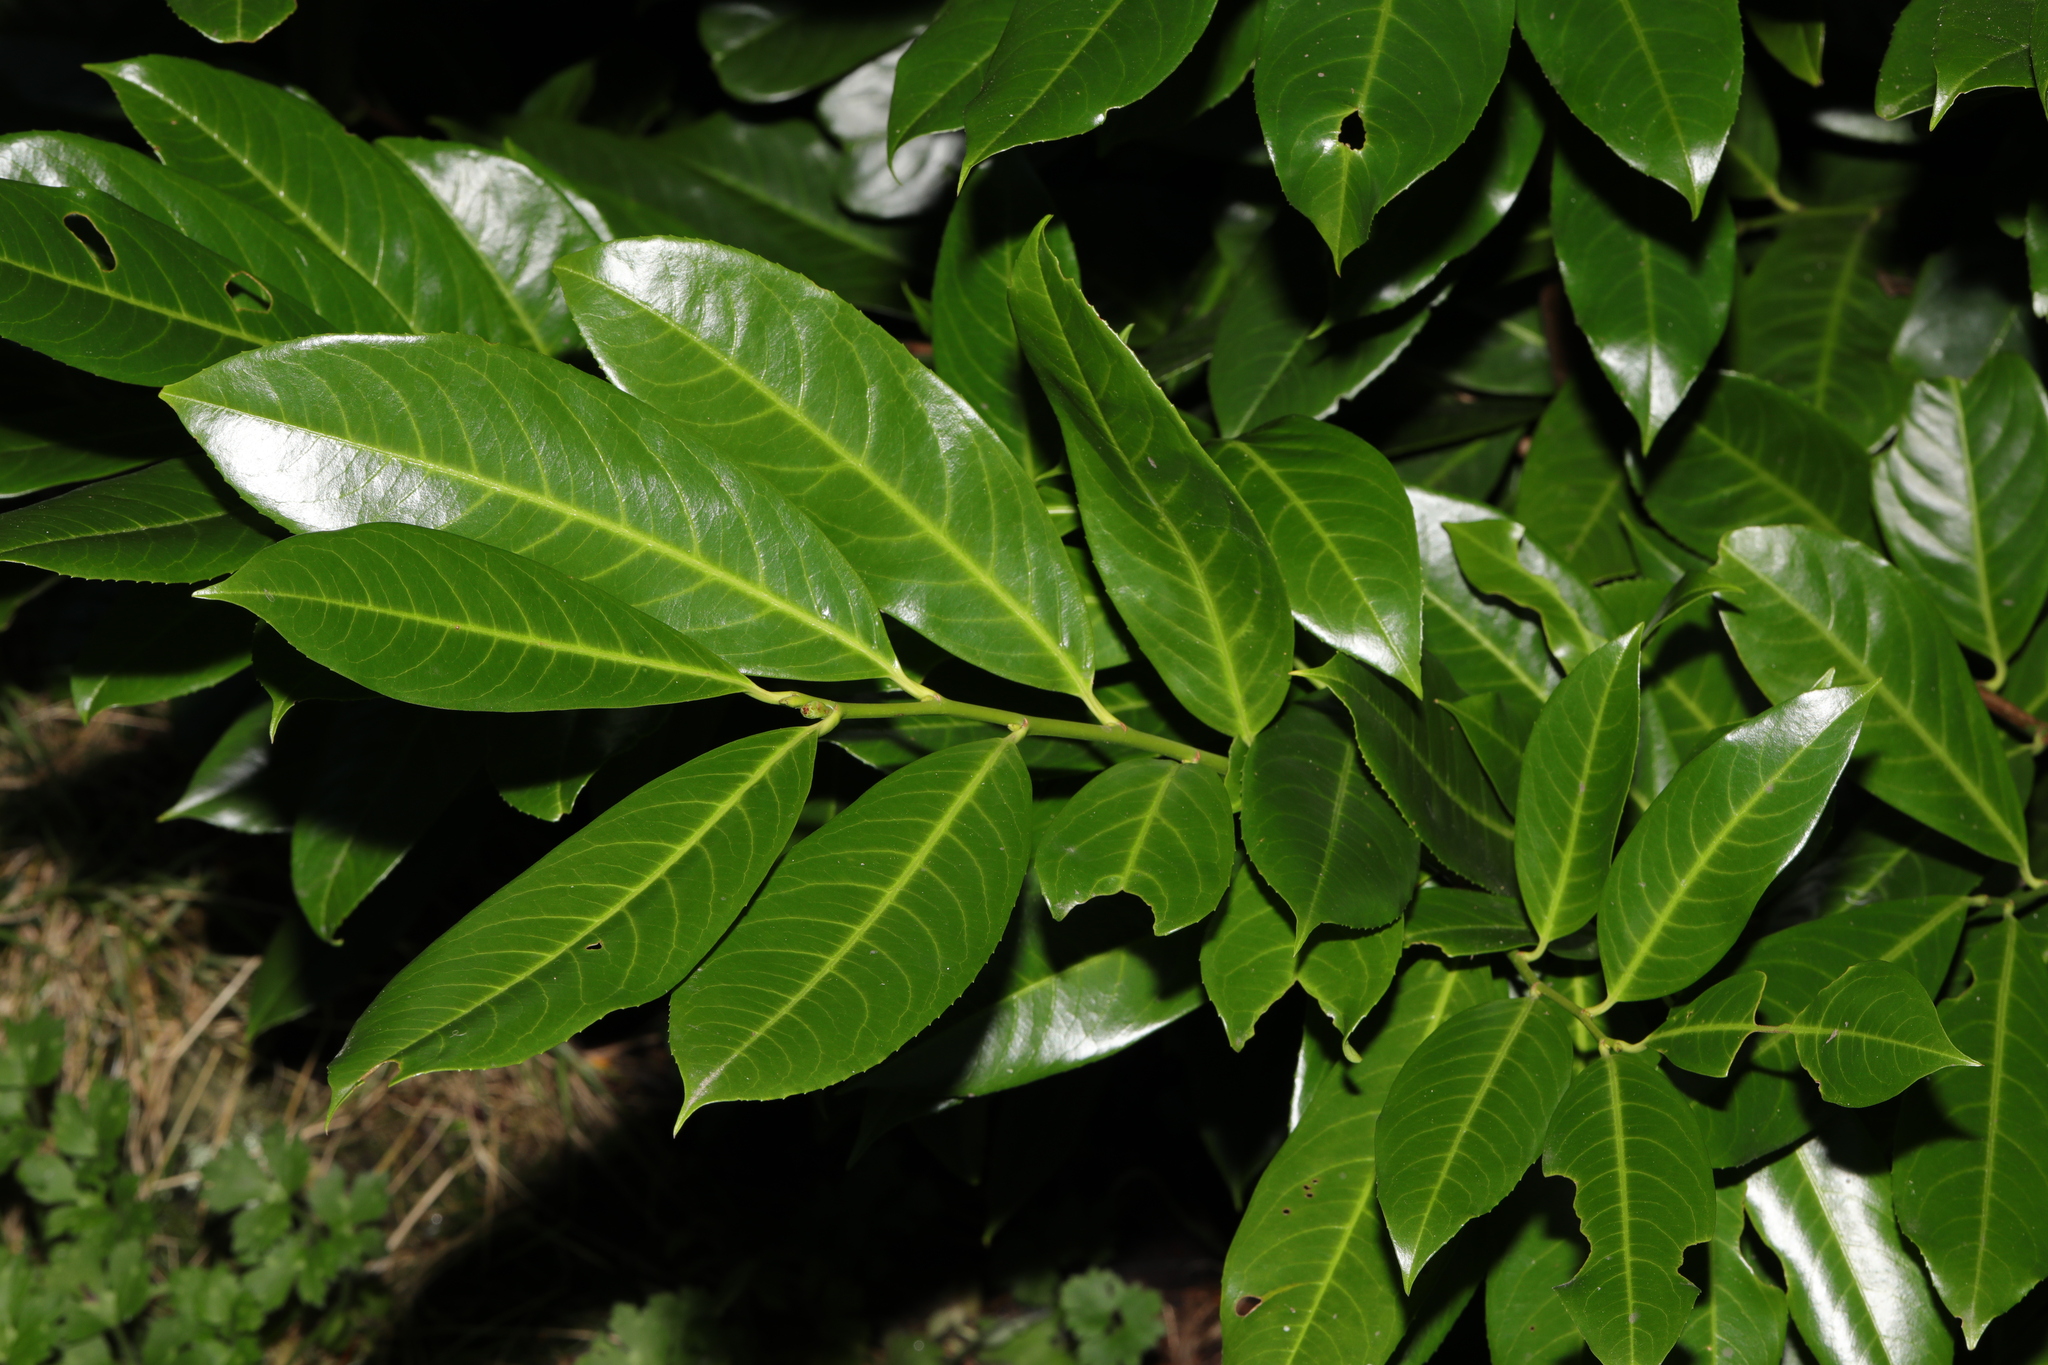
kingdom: Plantae
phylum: Tracheophyta
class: Magnoliopsida
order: Rosales
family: Rosaceae
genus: Prunus
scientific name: Prunus laurocerasus
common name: Cherry laurel
